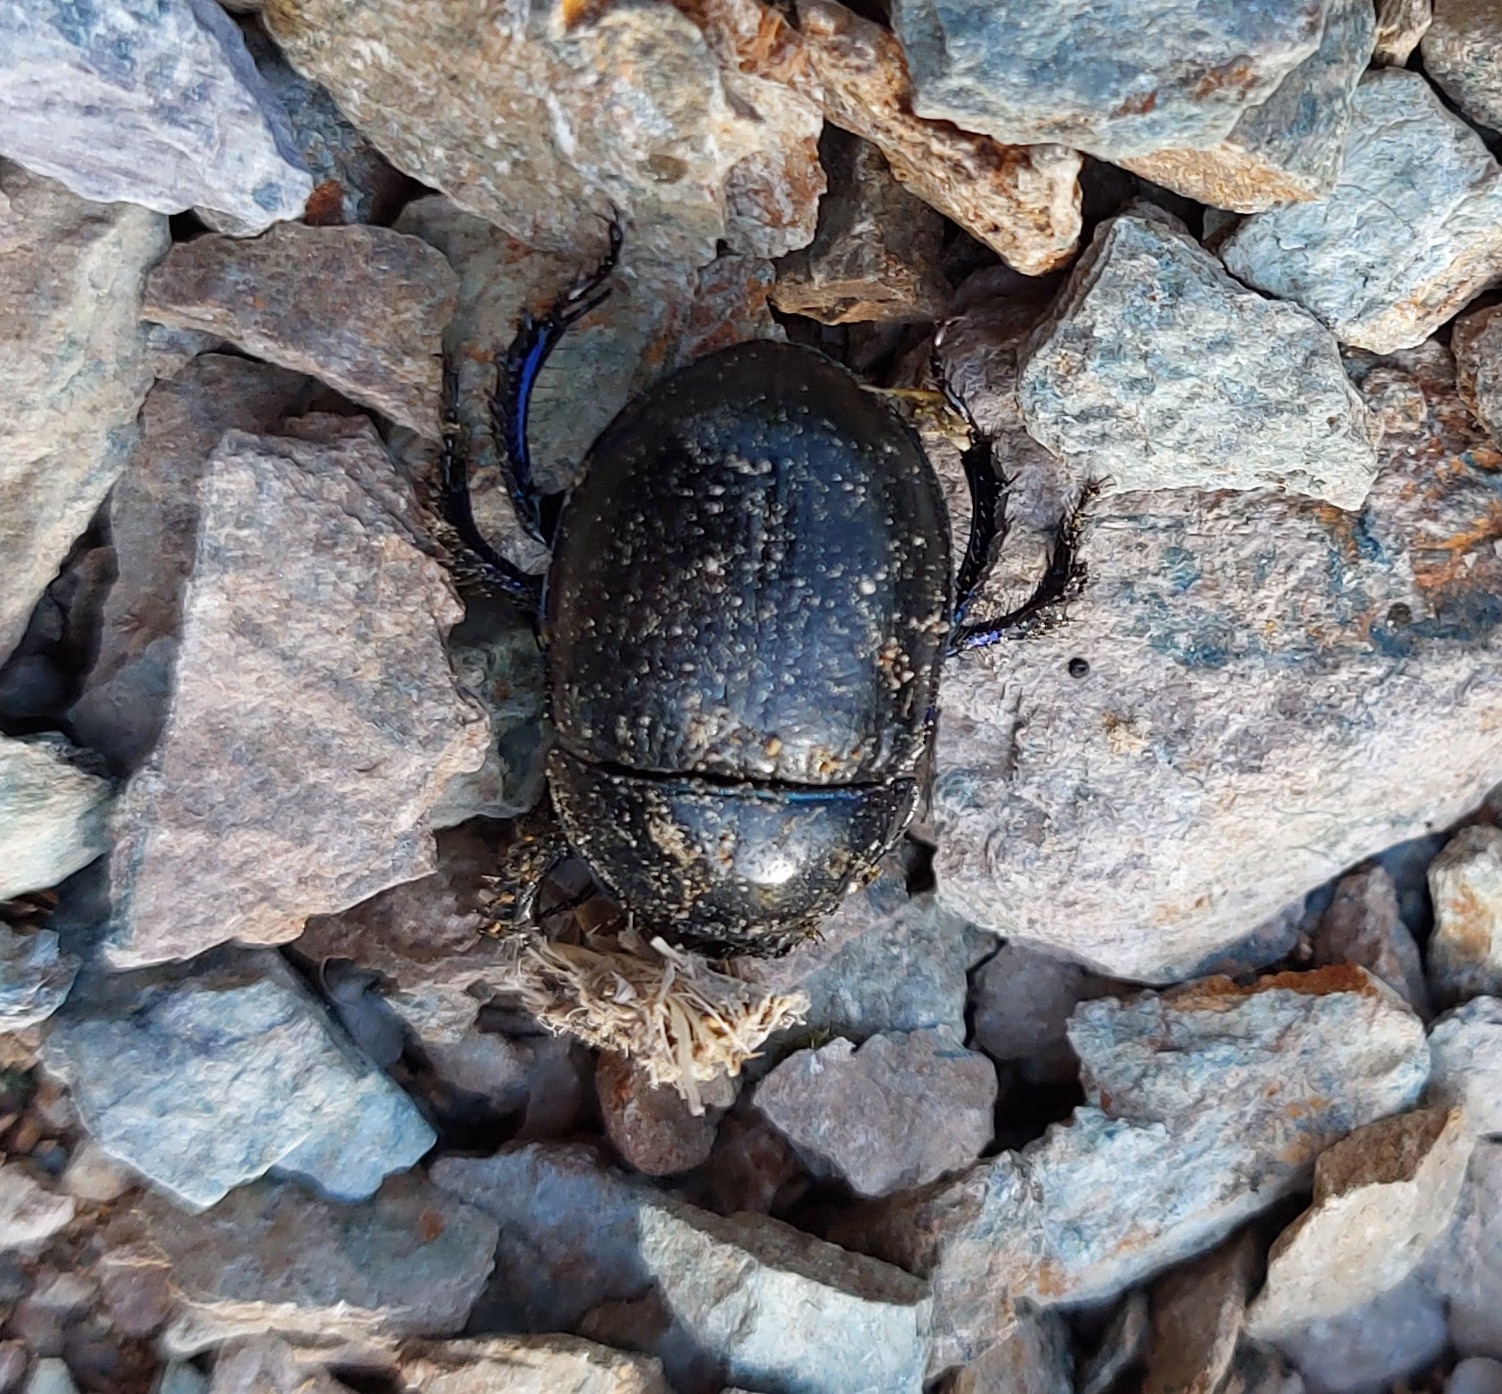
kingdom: Animalia
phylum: Arthropoda
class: Insecta
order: Coleoptera
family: Geotrupidae
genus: Anoplotrupes
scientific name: Anoplotrupes stercorosus
